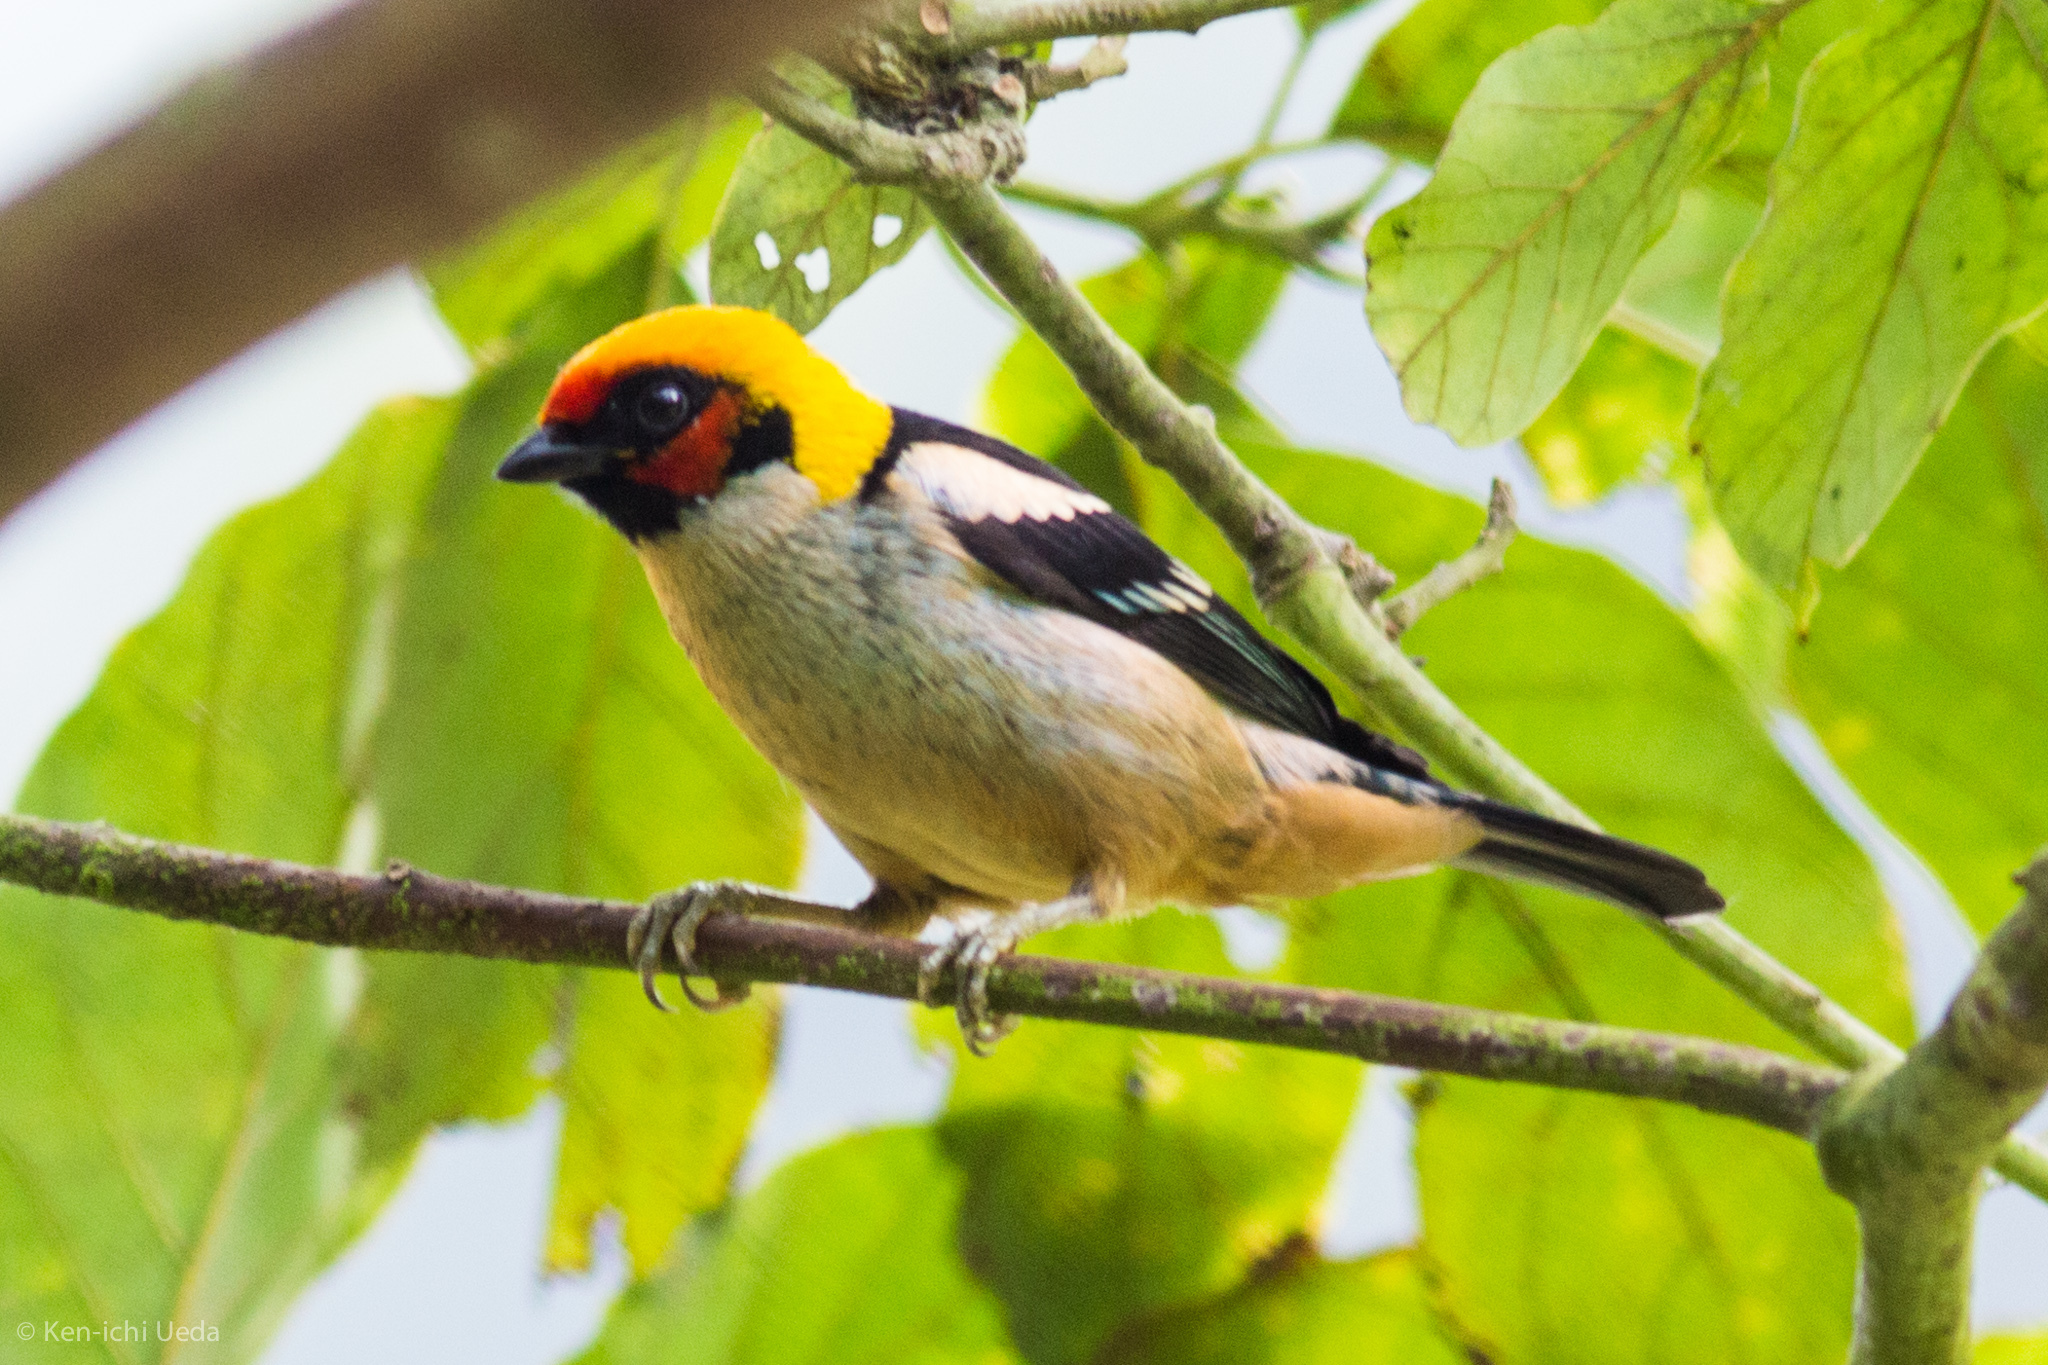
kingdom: Animalia
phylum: Chordata
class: Aves
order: Passeriformes
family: Thraupidae
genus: Tangara
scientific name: Tangara parzudakii
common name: Flame-faced tanager
